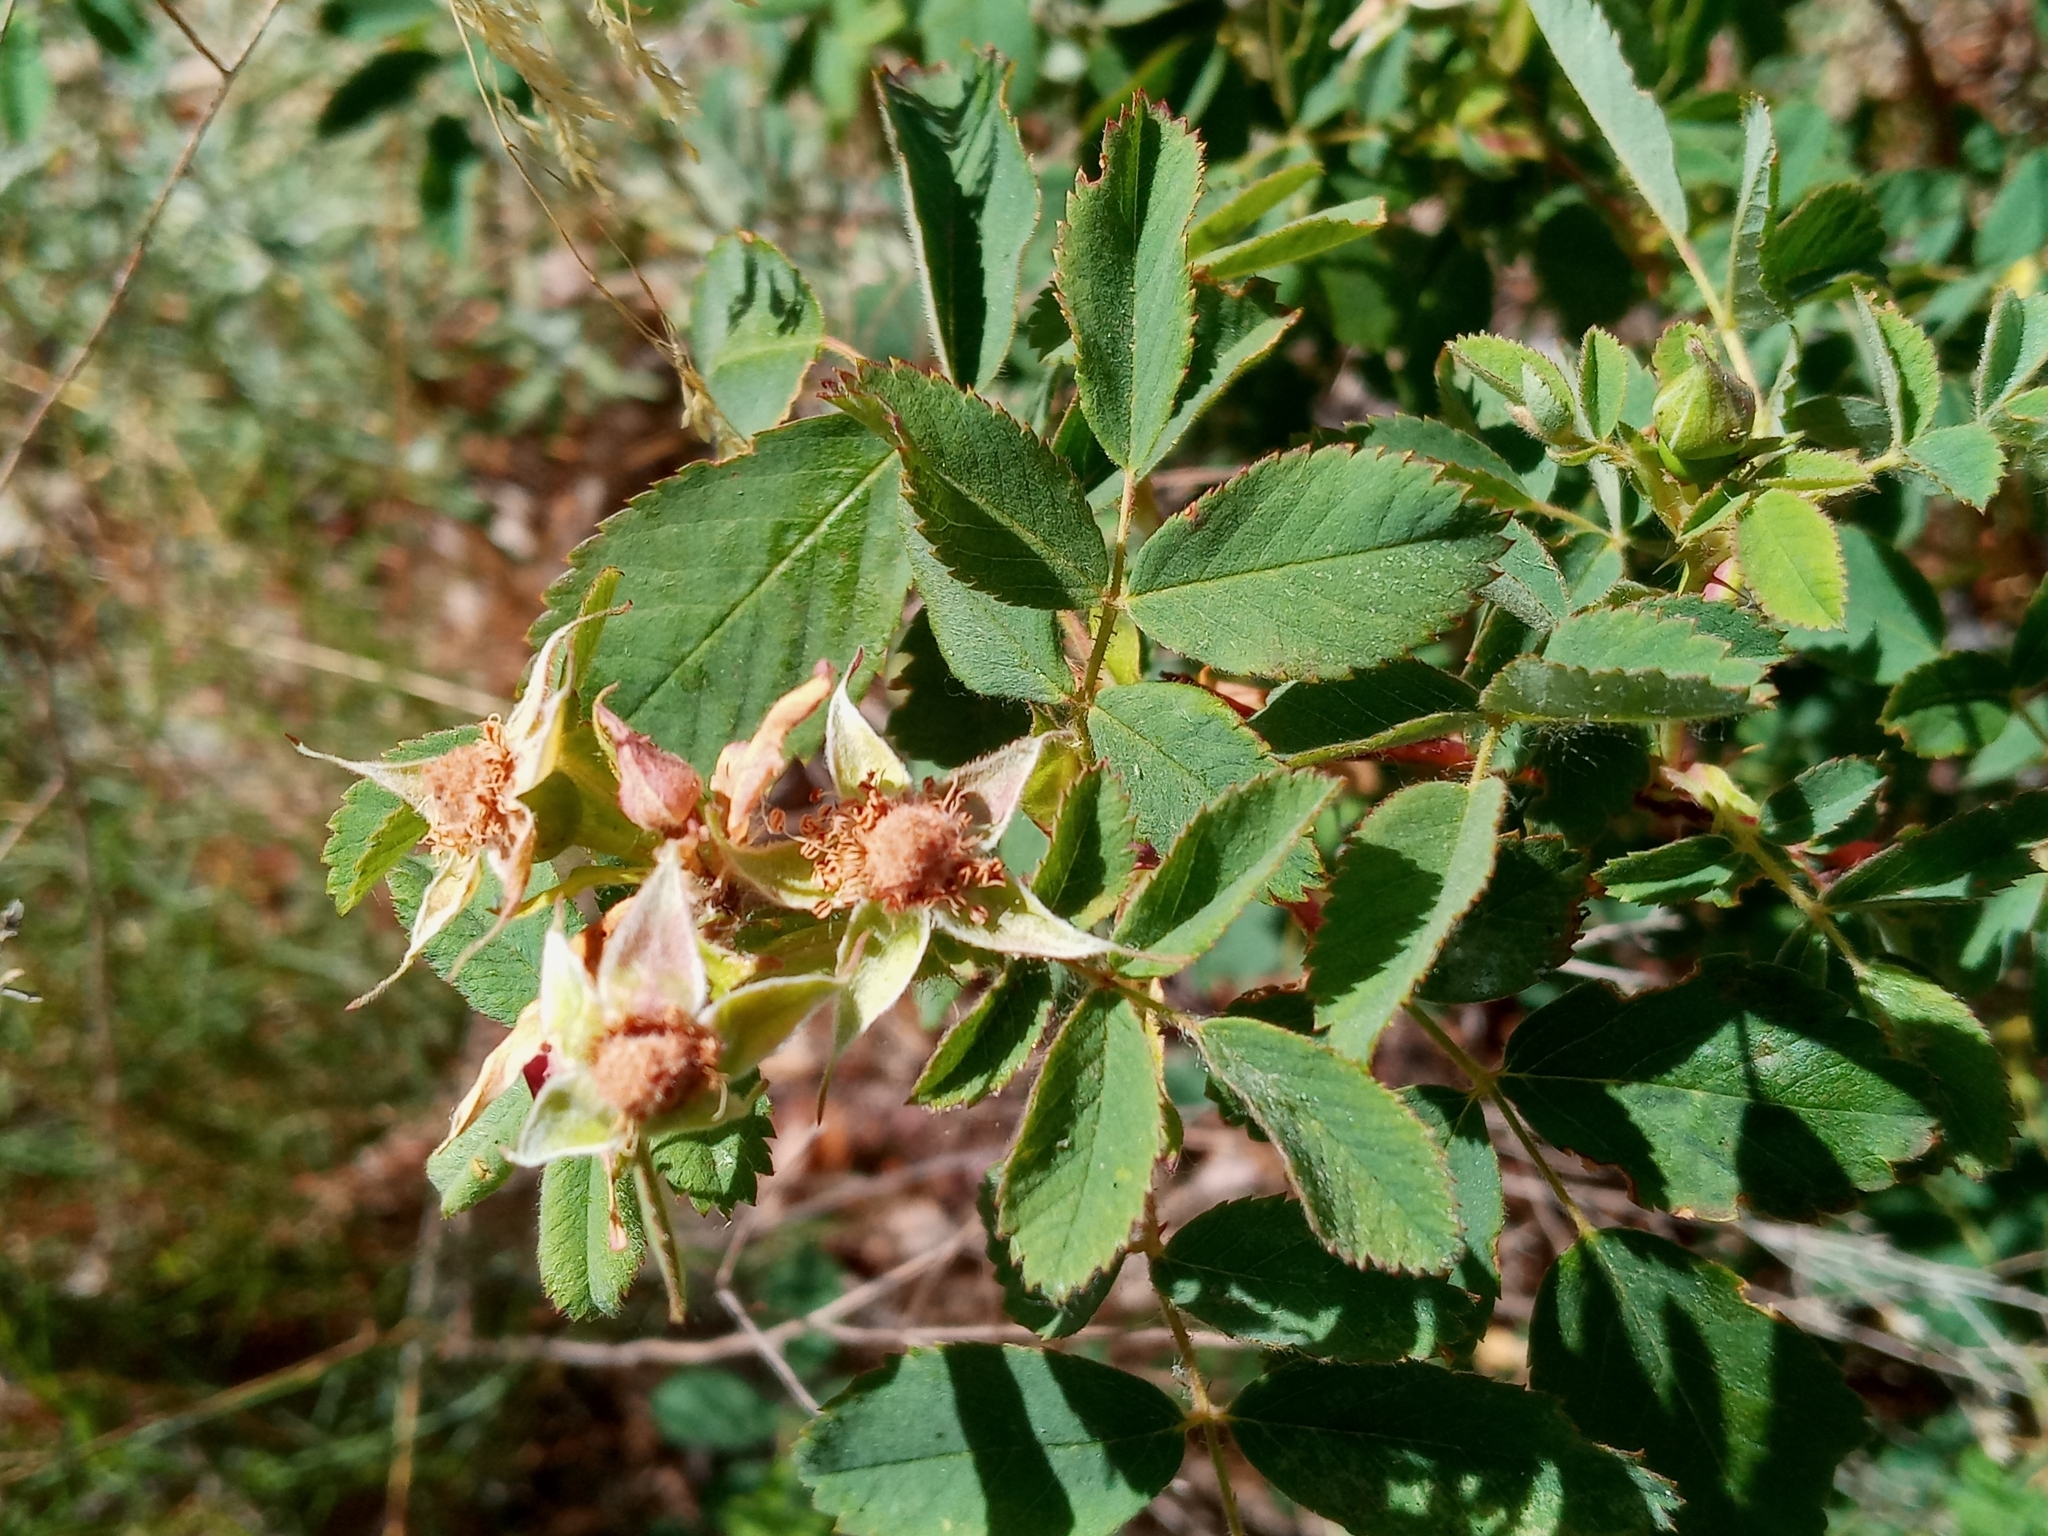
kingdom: Plantae
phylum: Tracheophyta
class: Magnoliopsida
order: Rosales
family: Rosaceae
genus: Rosa
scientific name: Rosa californica
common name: California rose
